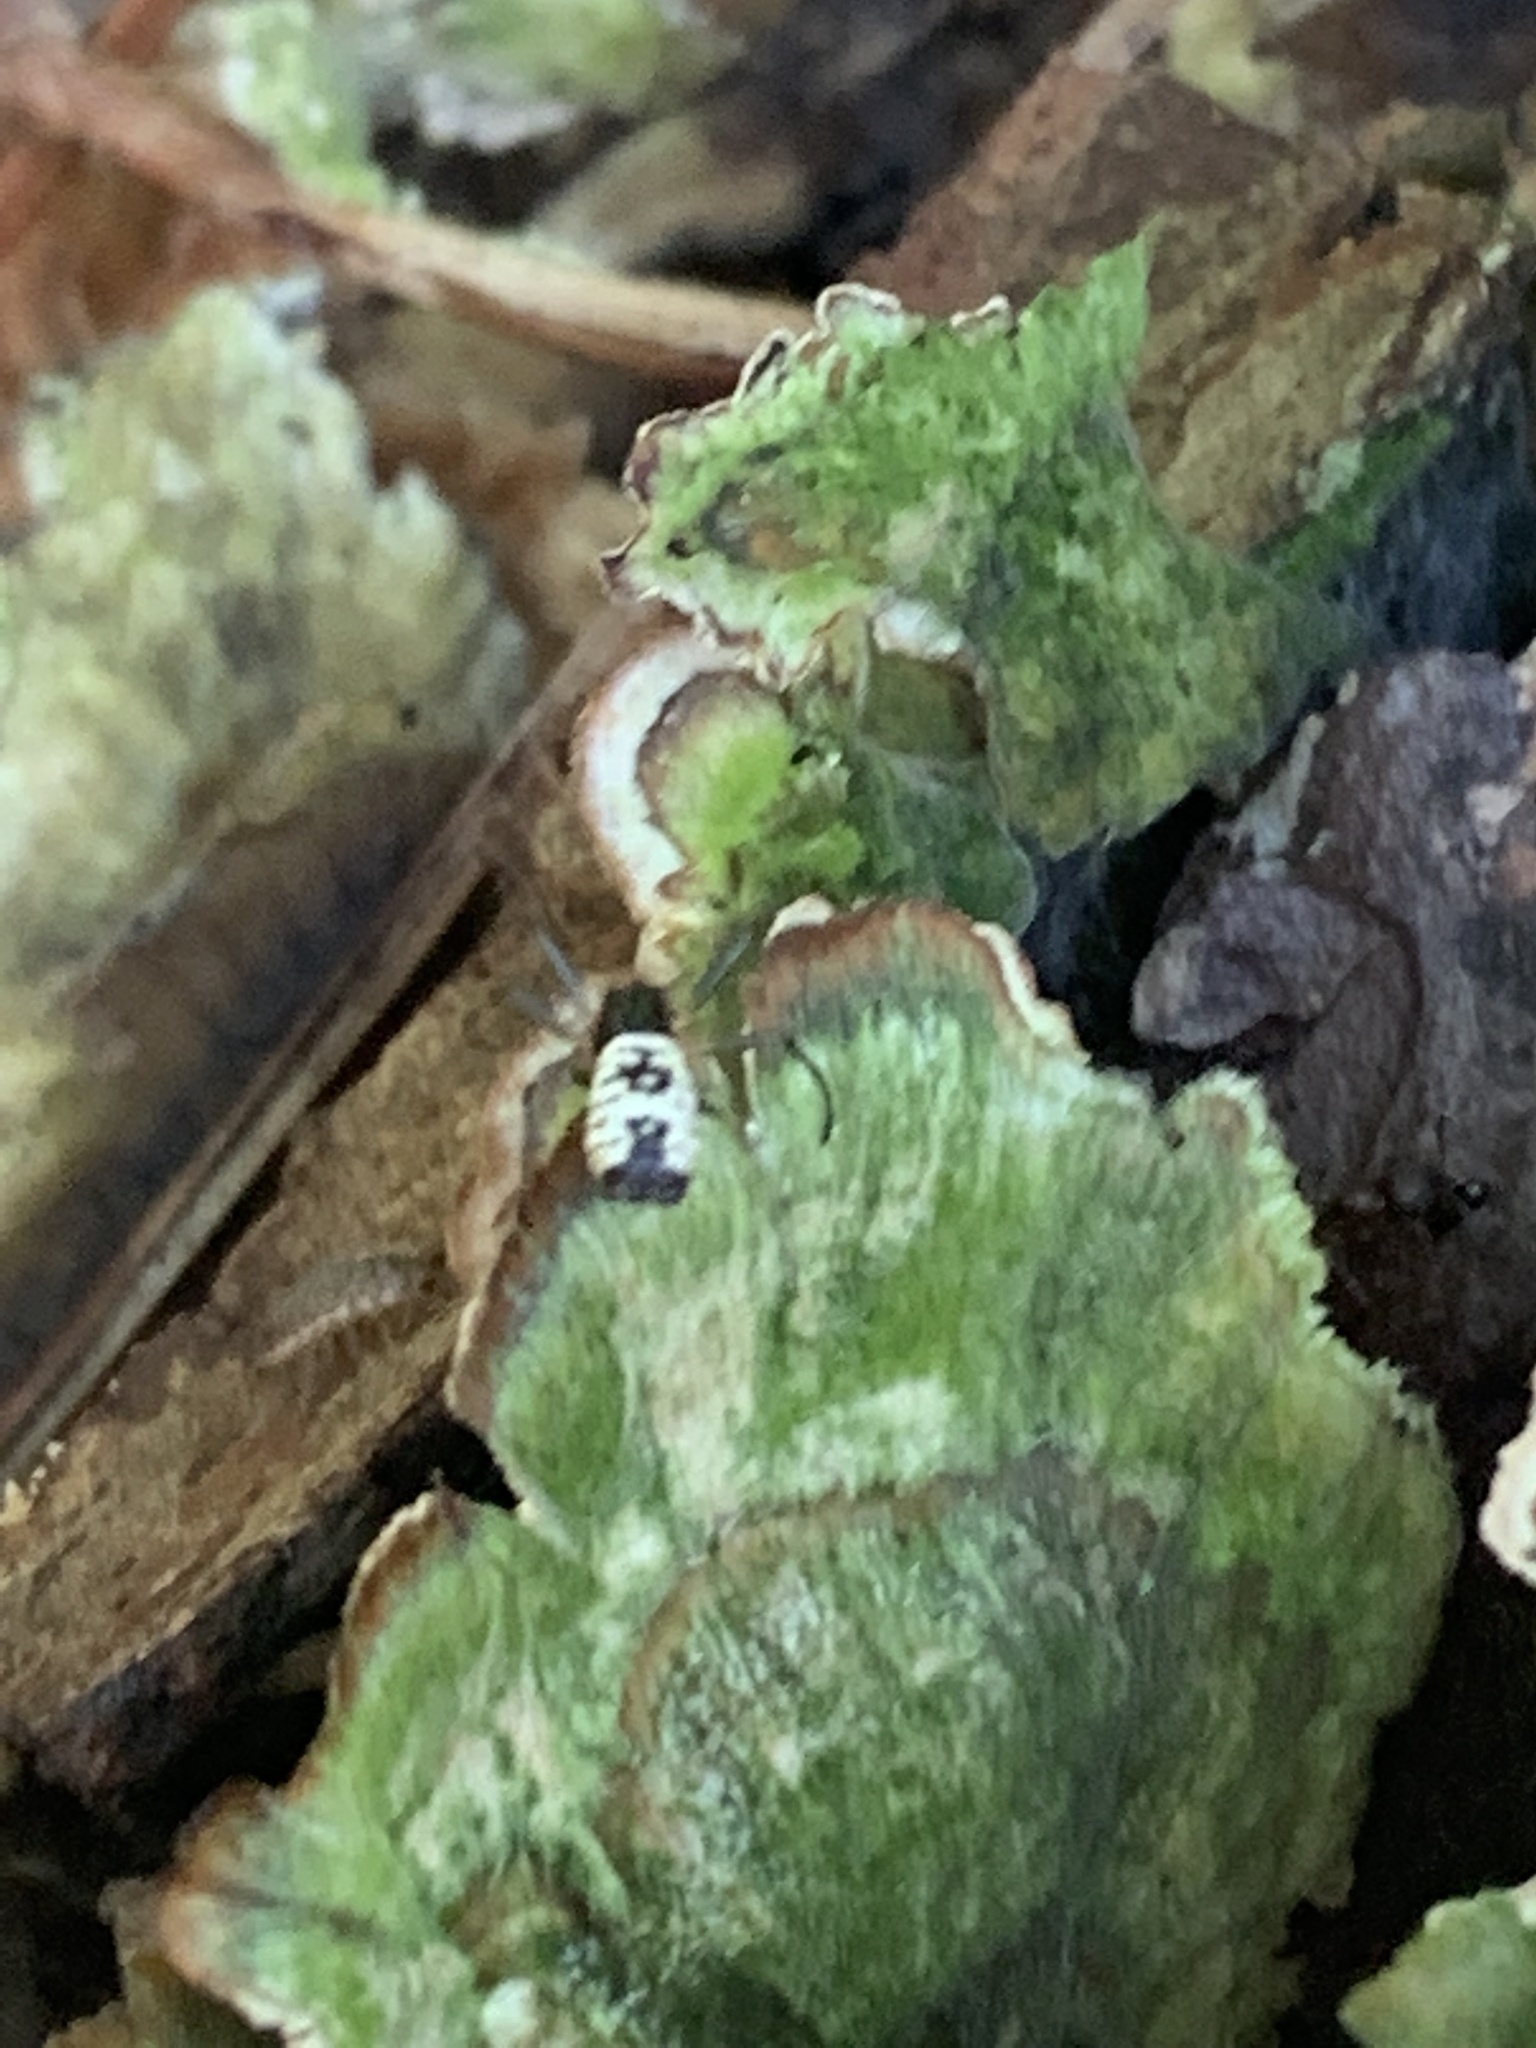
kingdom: Animalia
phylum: Arthropoda
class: Arachnida
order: Araneae
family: Araneidae
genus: Micrathena
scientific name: Micrathena mitrata
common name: Orb weavers
